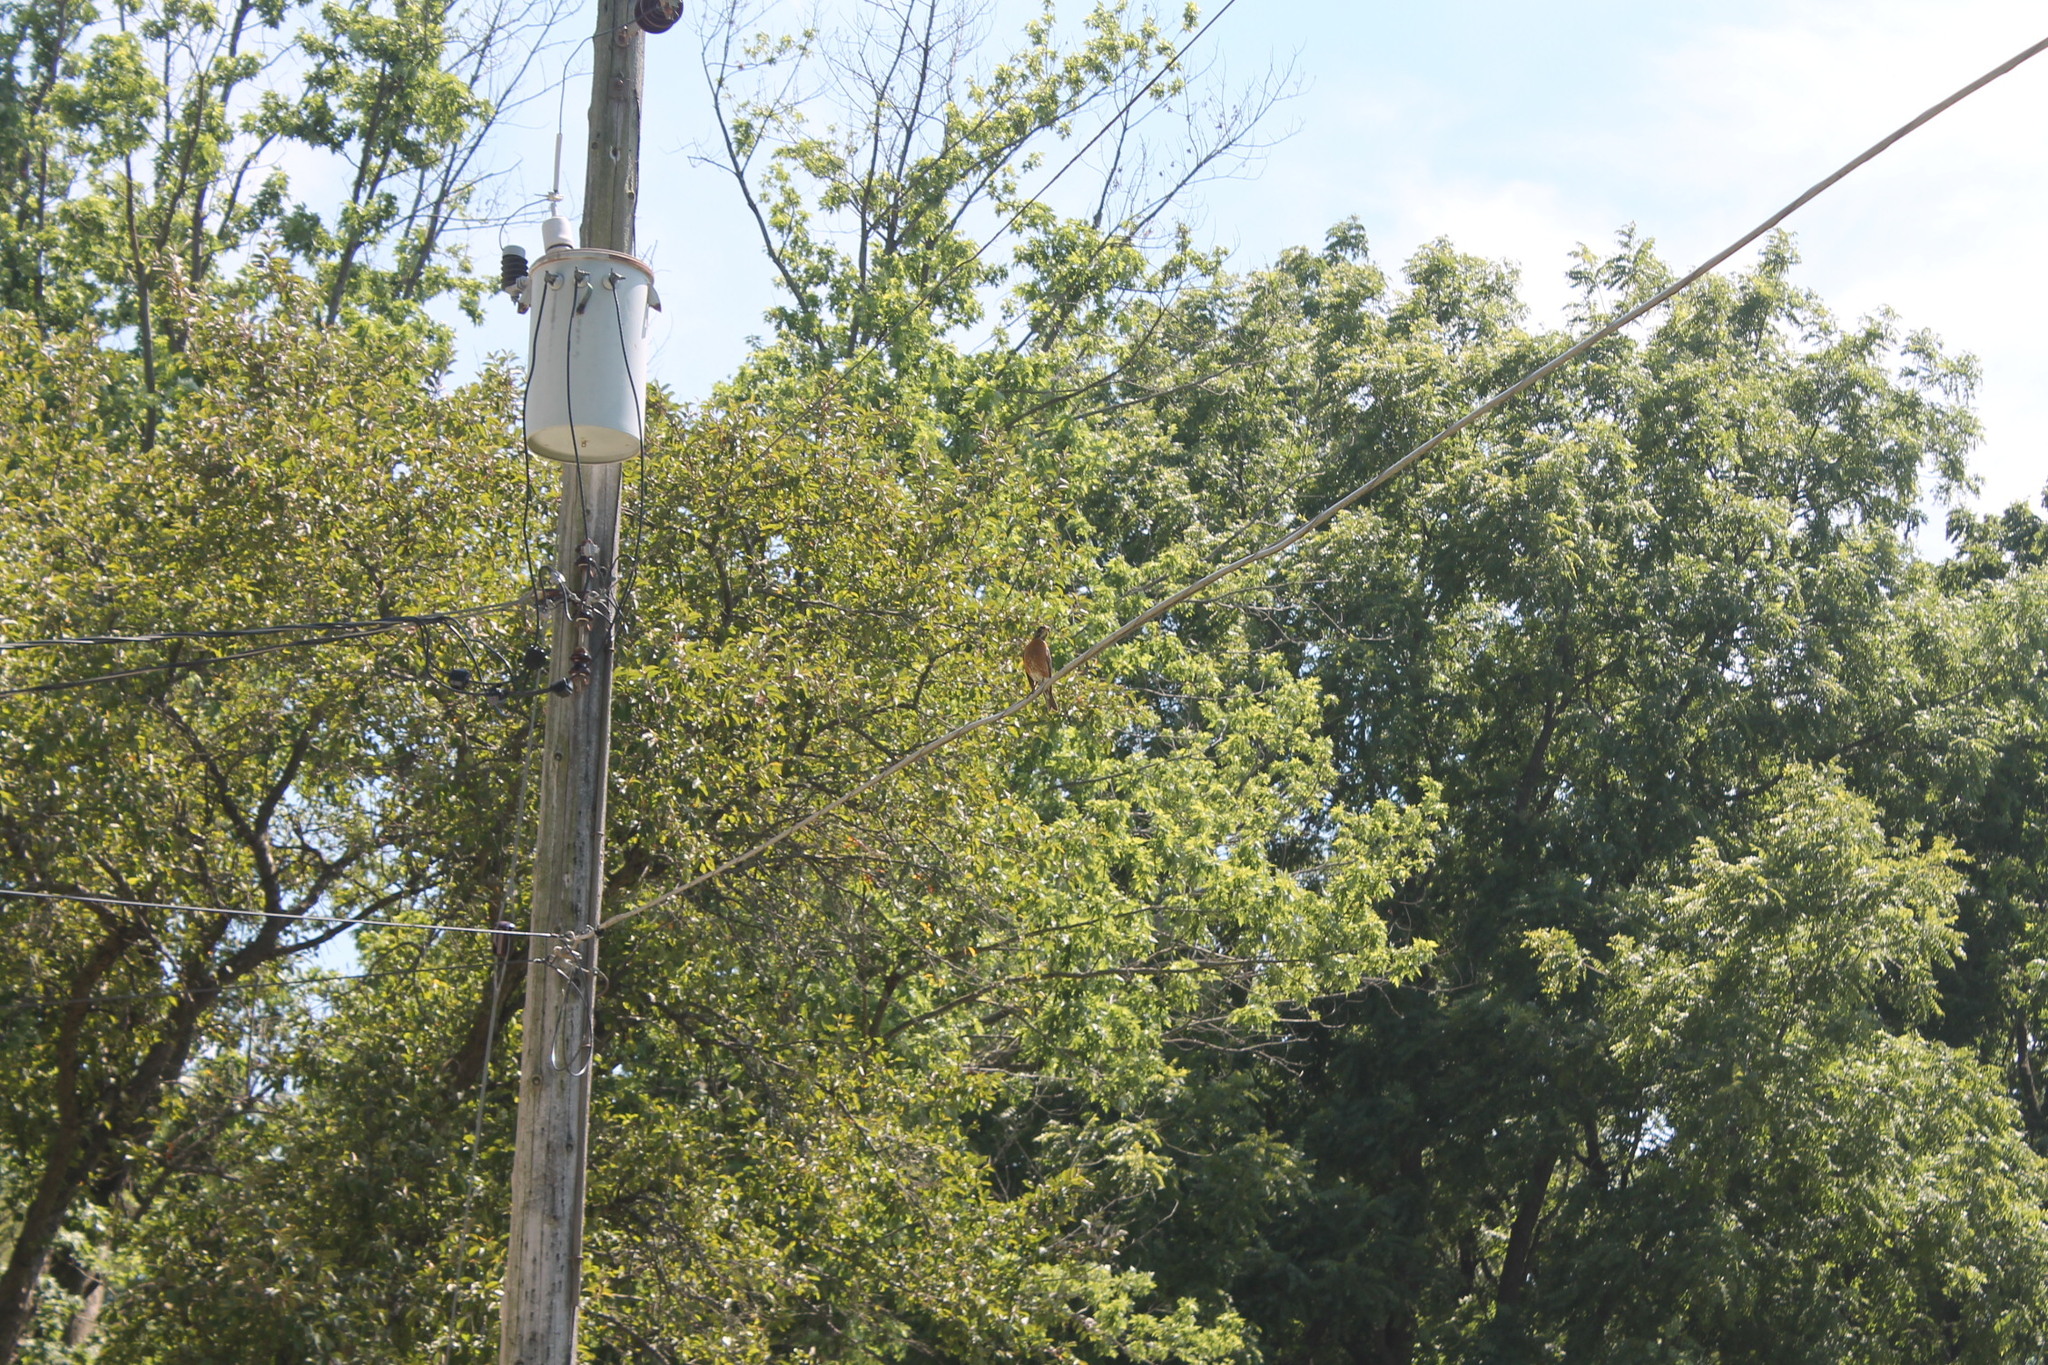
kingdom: Animalia
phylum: Chordata
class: Aves
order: Passeriformes
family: Turdidae
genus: Turdus
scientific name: Turdus migratorius
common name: American robin
